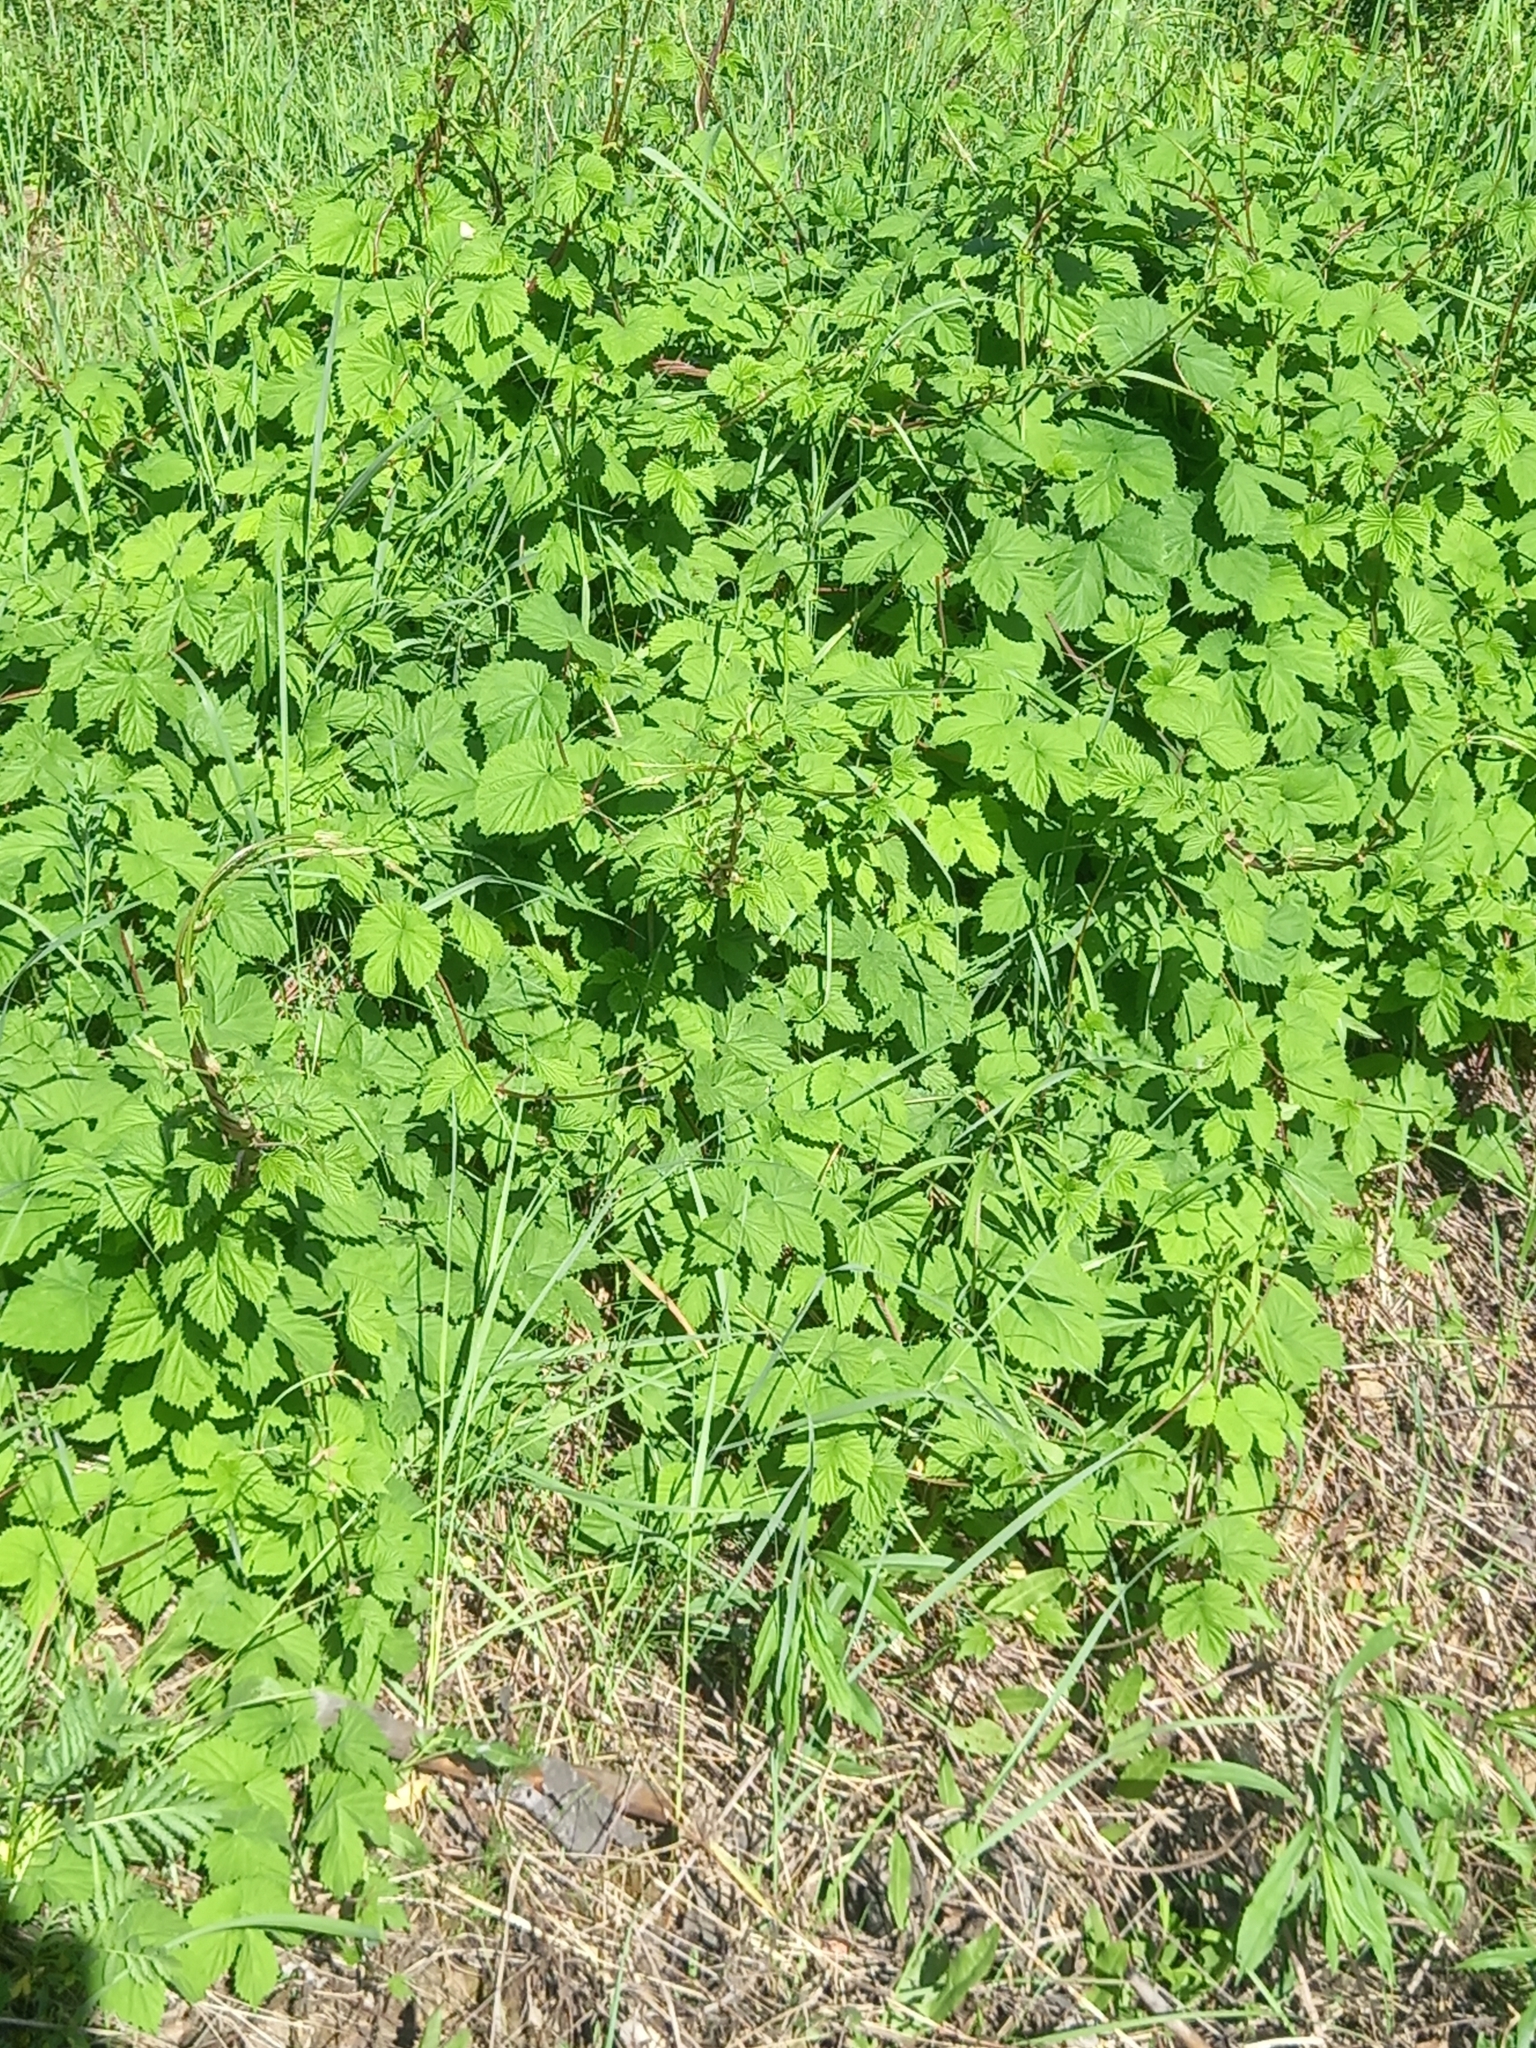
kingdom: Plantae
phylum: Tracheophyta
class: Magnoliopsida
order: Rosales
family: Cannabaceae
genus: Humulus
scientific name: Humulus lupulus
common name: Hop
